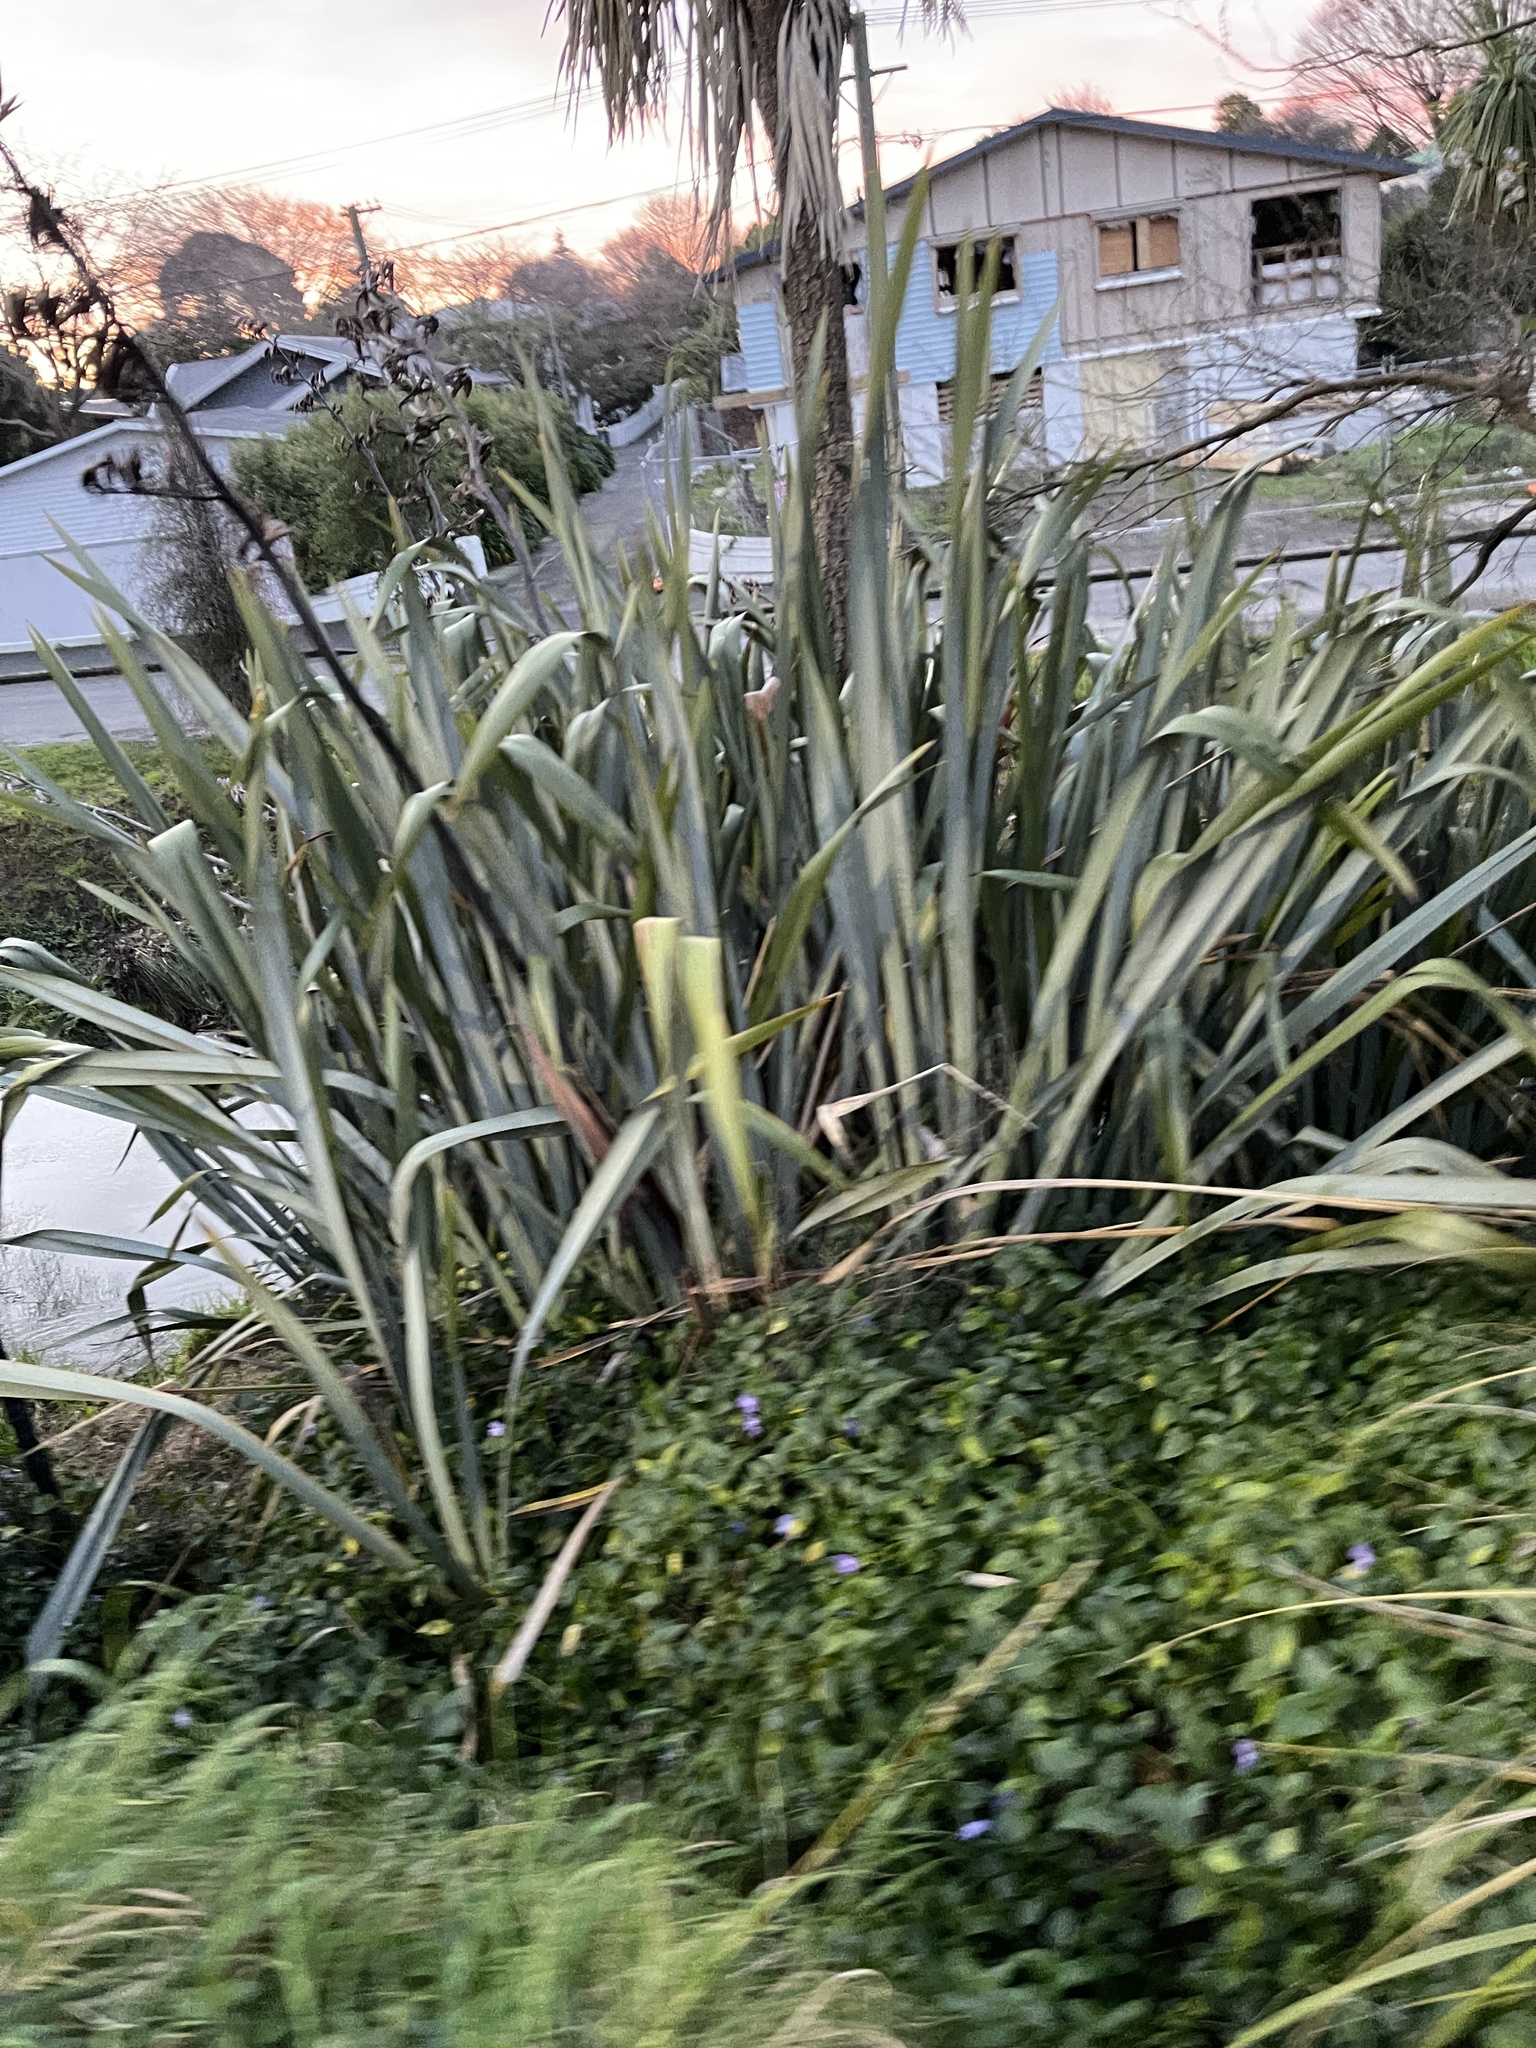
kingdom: Plantae
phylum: Tracheophyta
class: Liliopsida
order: Asparagales
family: Asphodelaceae
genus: Phormium
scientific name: Phormium tenax
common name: New zealand flax
